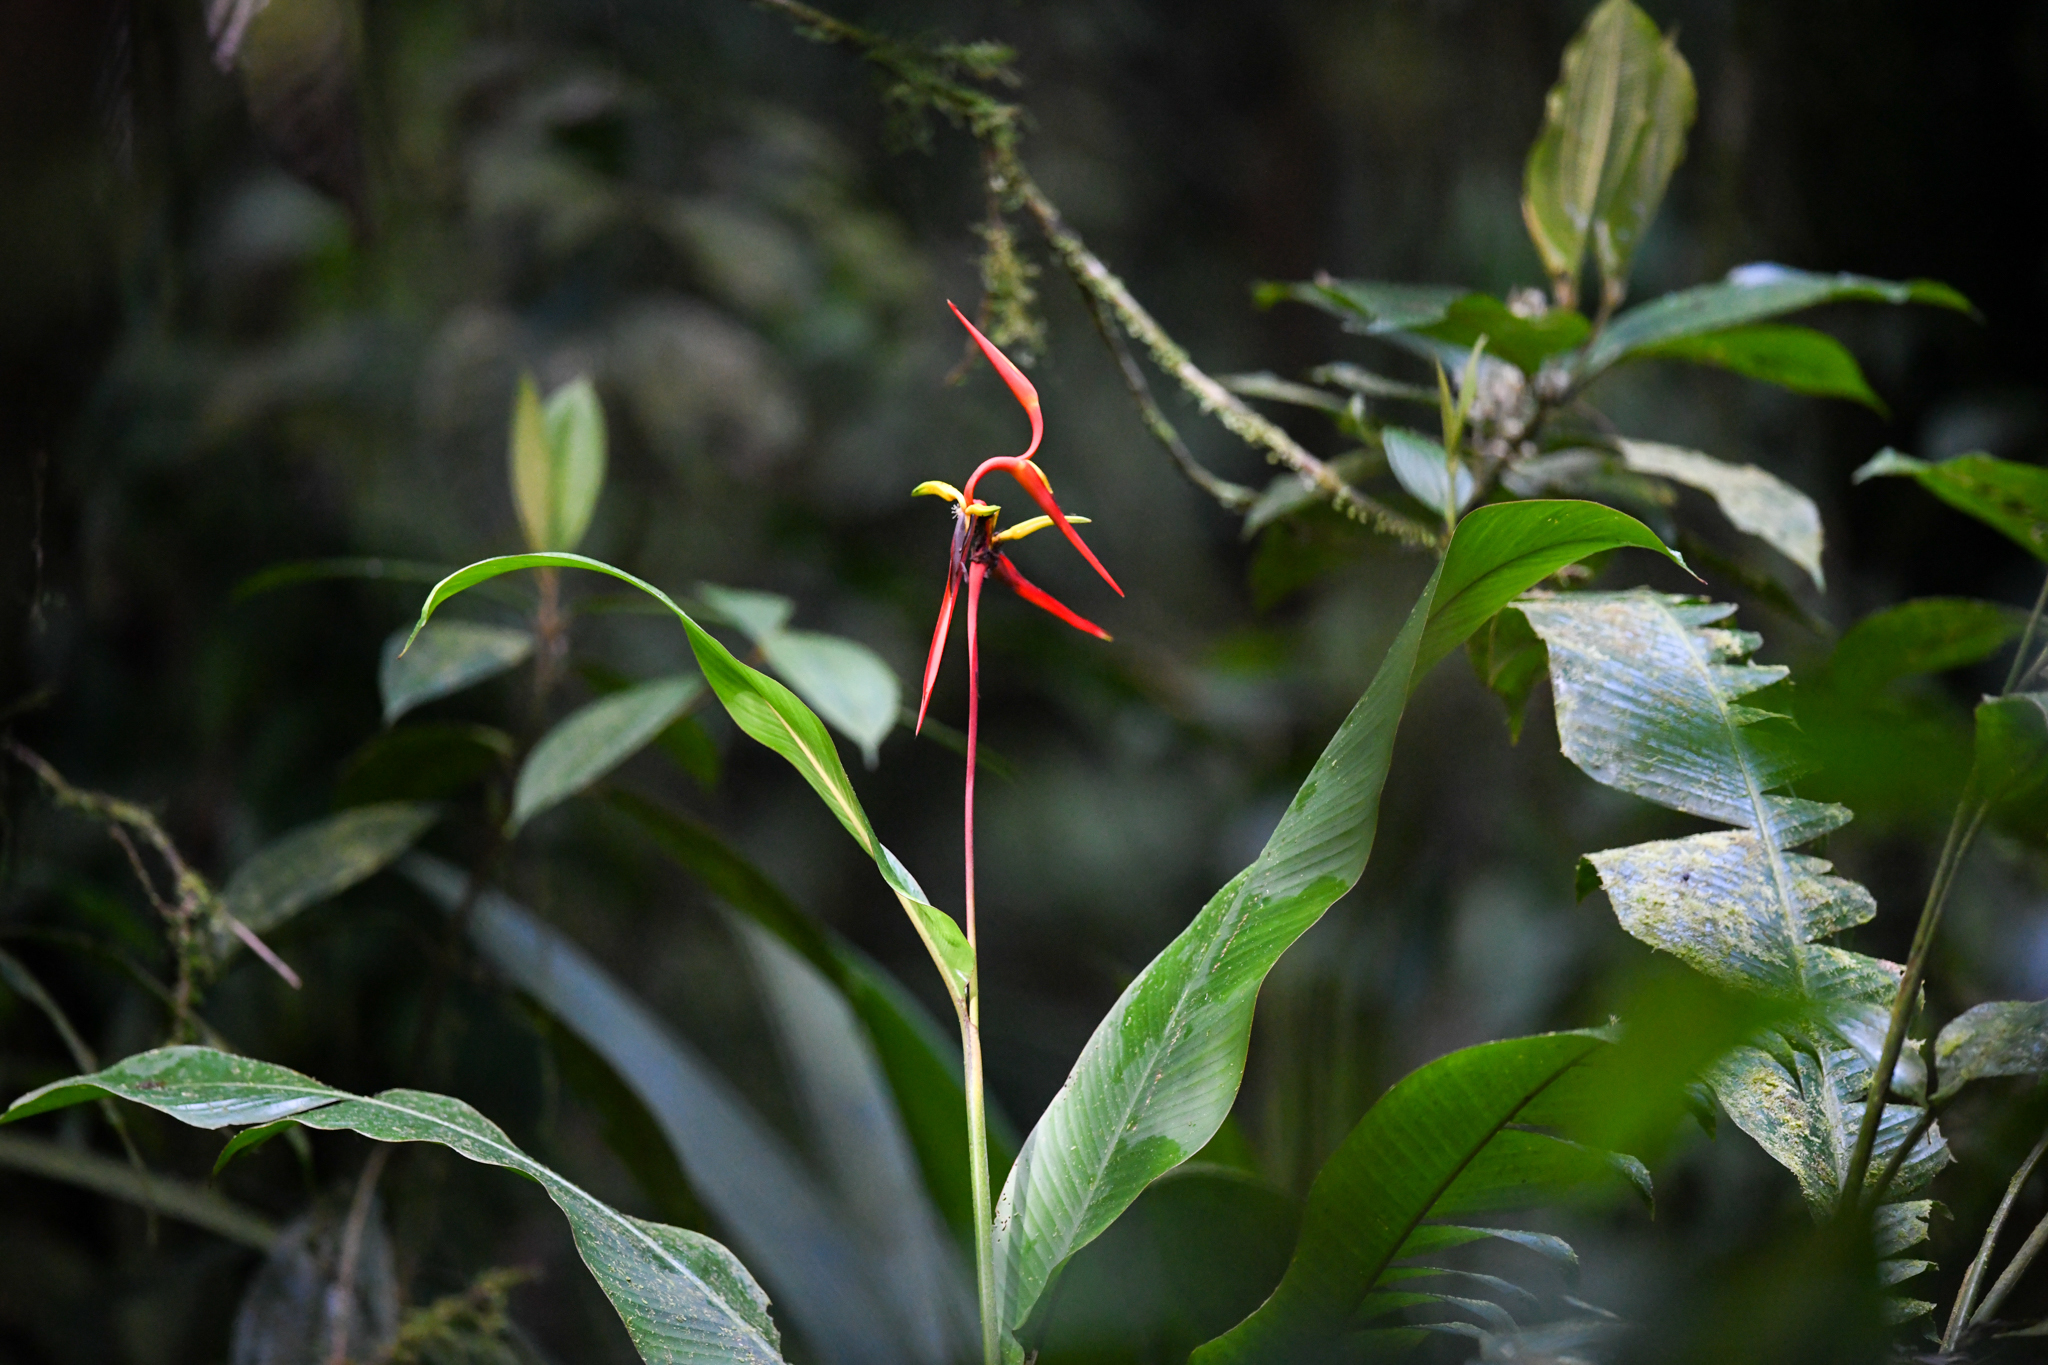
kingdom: Plantae
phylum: Tracheophyta
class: Liliopsida
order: Zingiberales
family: Heliconiaceae
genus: Heliconia
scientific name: Heliconia vaginalis
